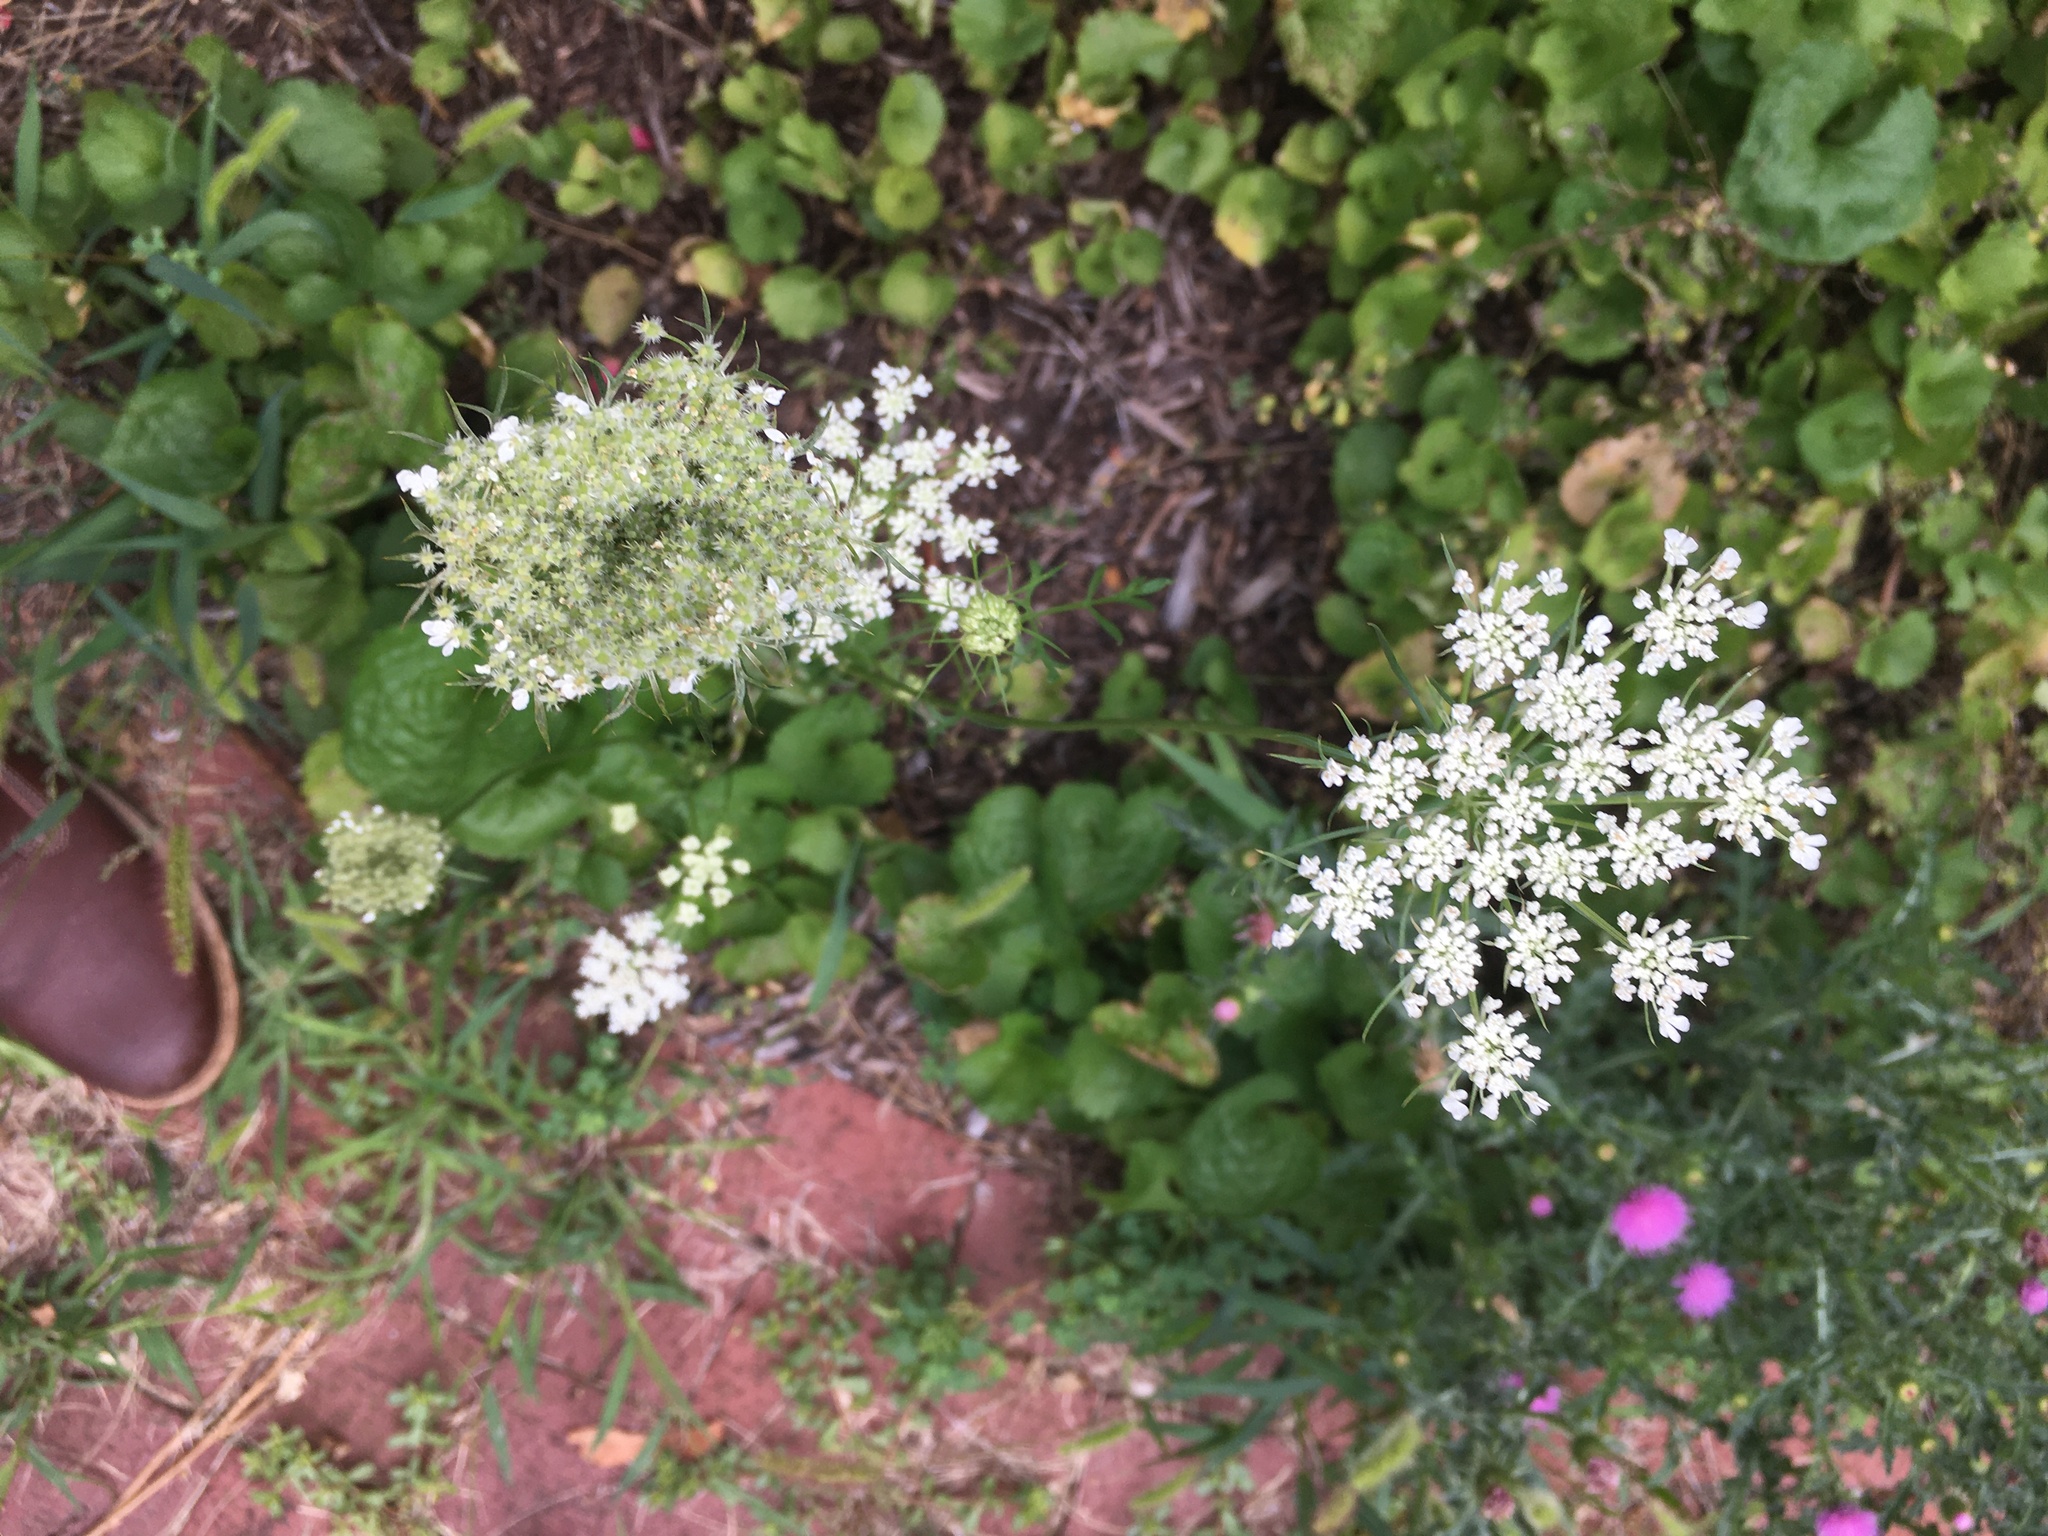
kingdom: Plantae
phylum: Tracheophyta
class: Magnoliopsida
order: Apiales
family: Apiaceae
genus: Daucus
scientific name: Daucus carota
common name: Wild carrot
